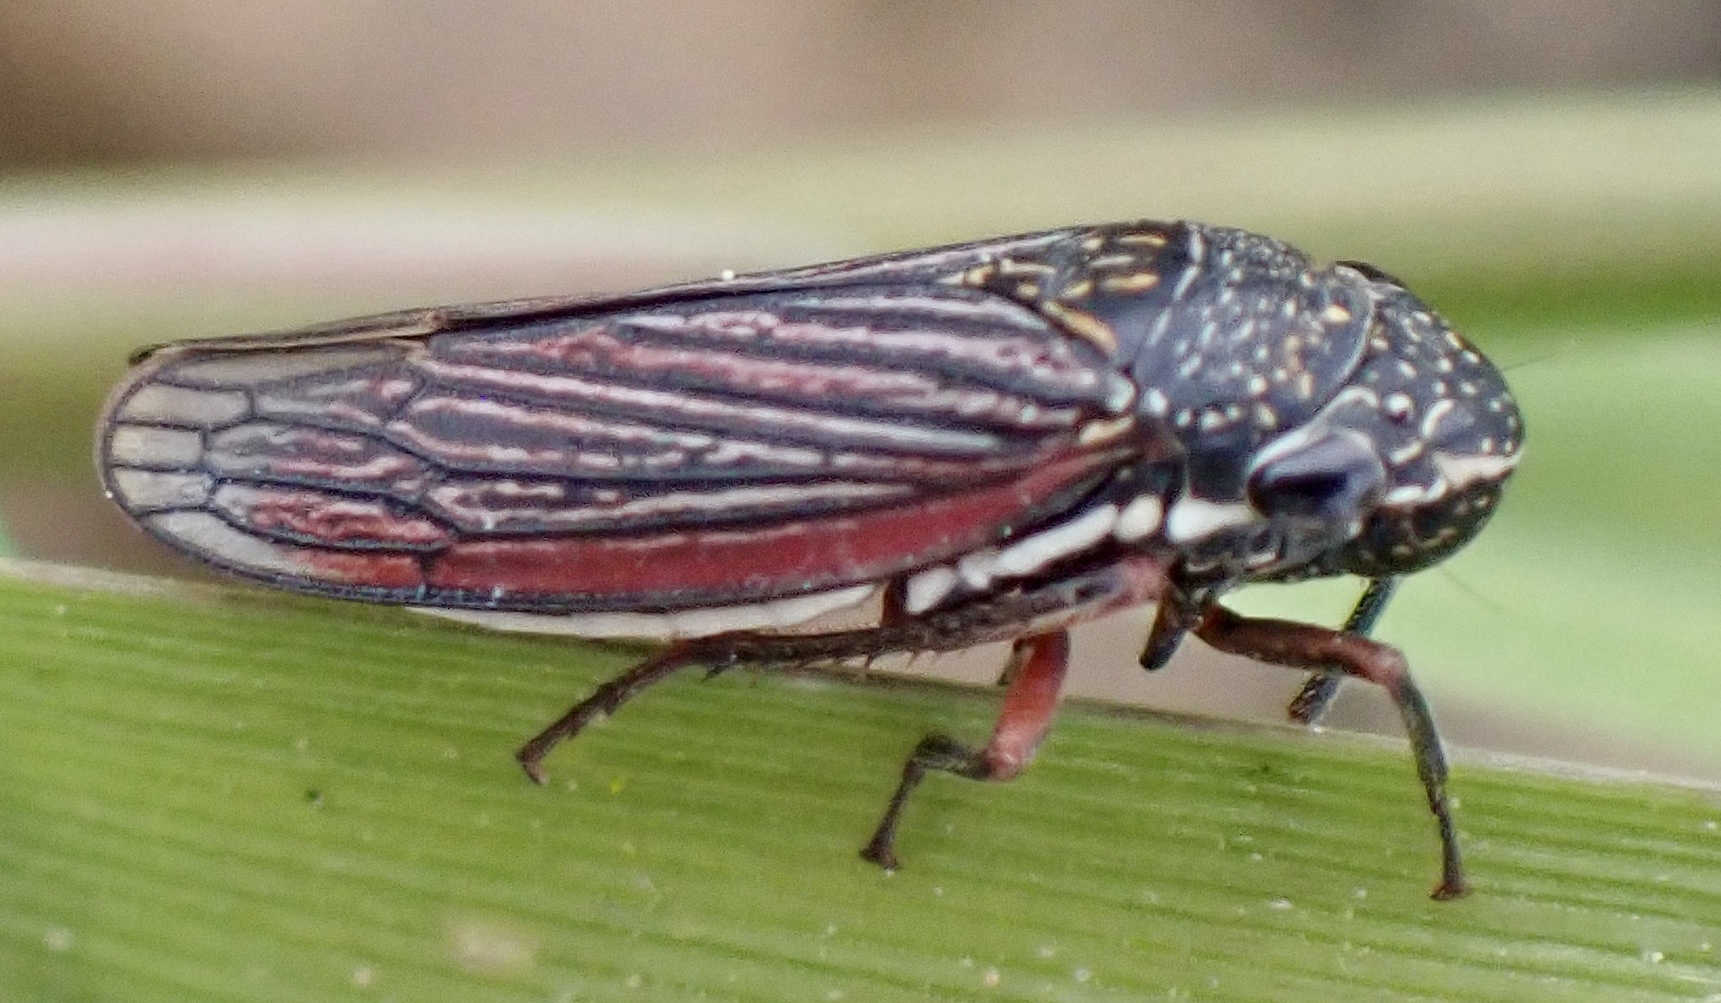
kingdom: Animalia
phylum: Arthropoda
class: Insecta
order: Hemiptera
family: Cicadellidae
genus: Cuerna
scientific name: Cuerna costalis
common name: Lateral-lined sharpshooter
